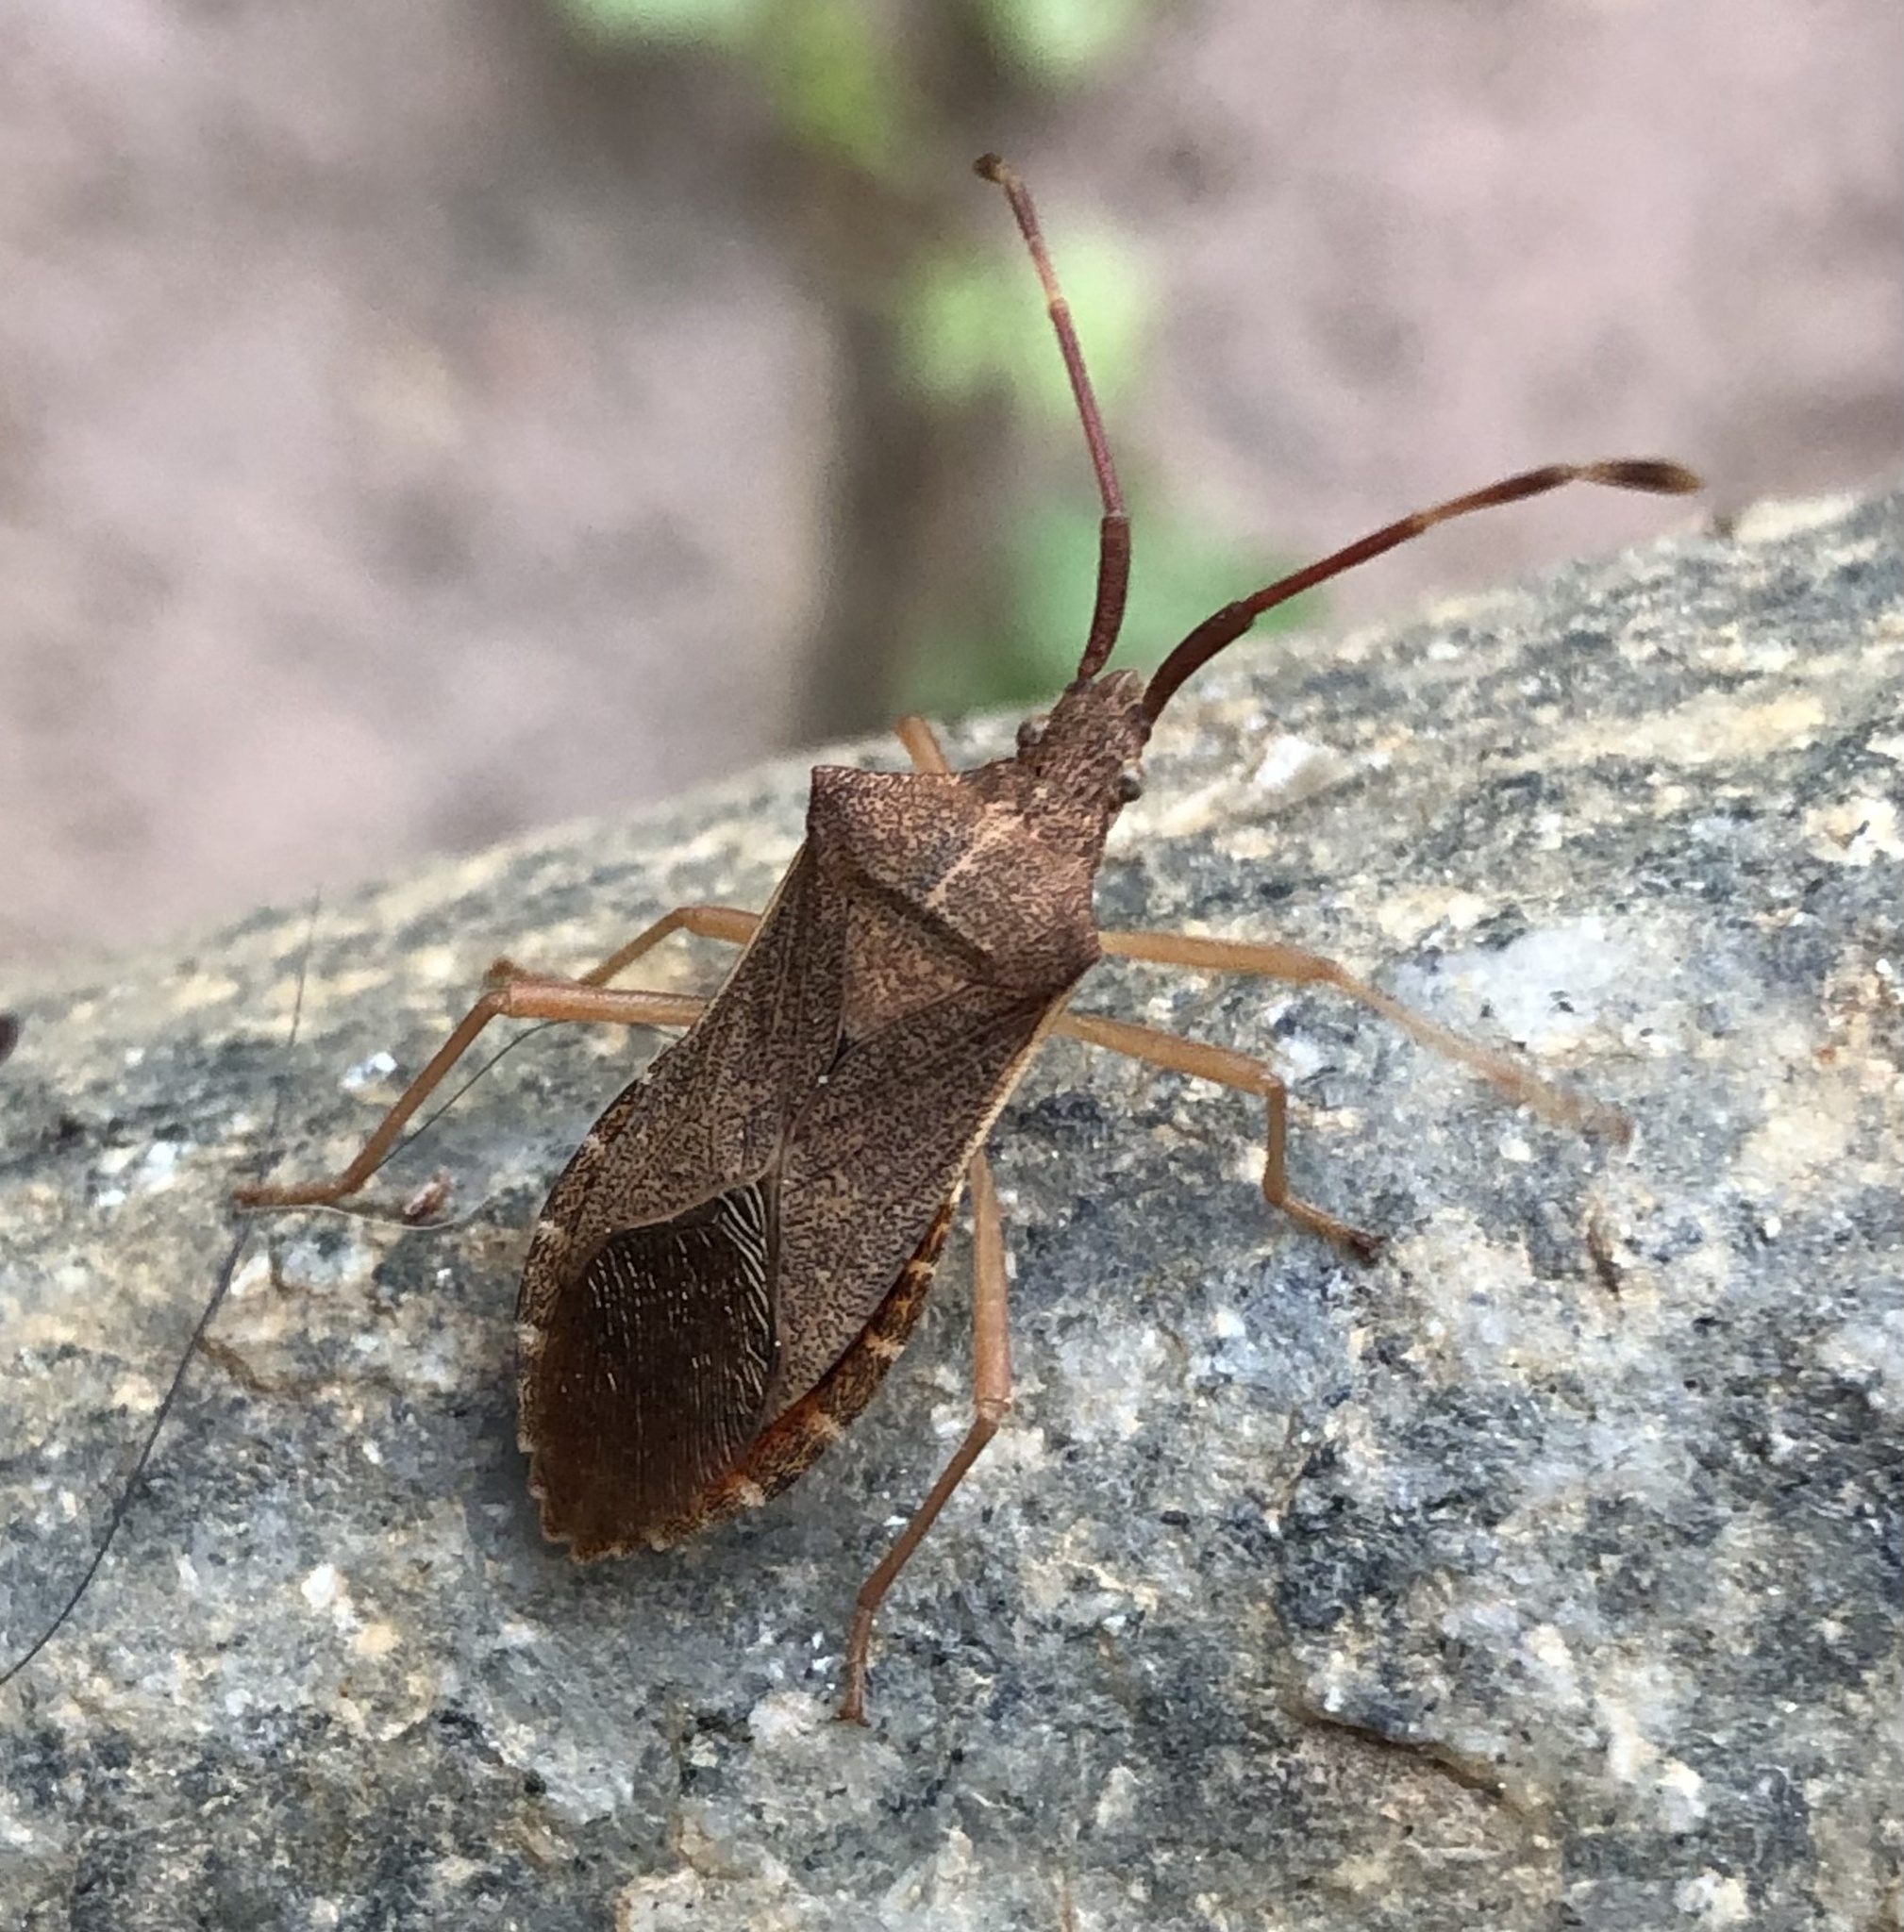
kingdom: Animalia
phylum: Arthropoda
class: Insecta
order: Hemiptera
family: Coreidae
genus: Gonocerus
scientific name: Gonocerus acuteangulatus
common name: Box bug
